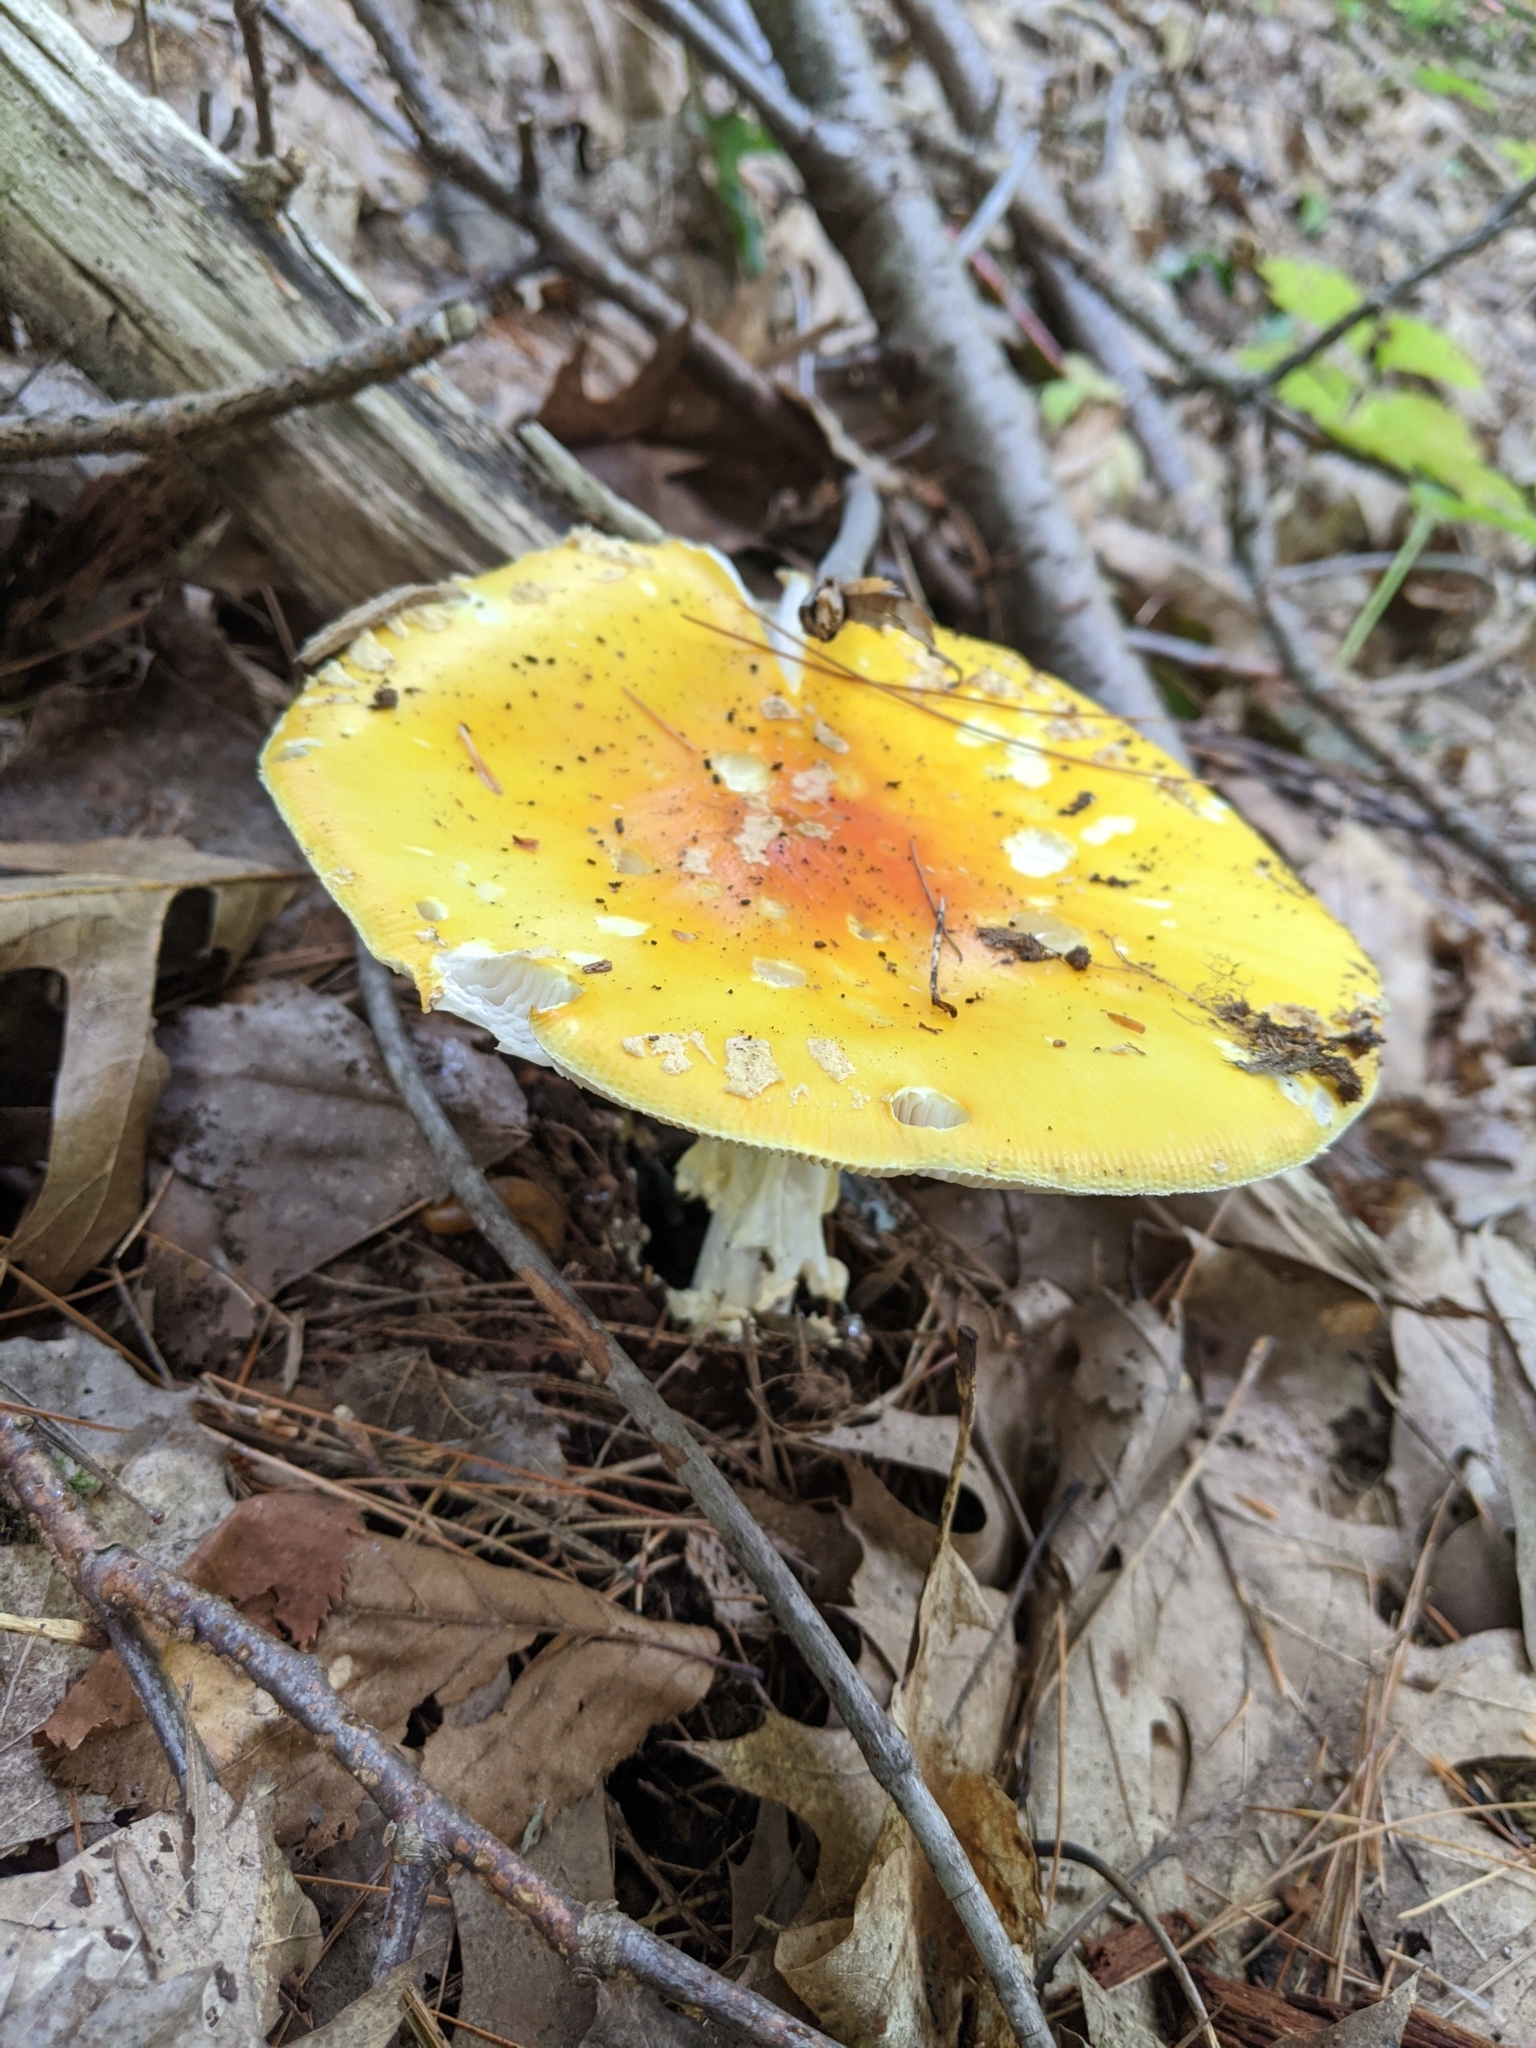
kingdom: Fungi
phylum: Basidiomycota
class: Agaricomycetes
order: Agaricales
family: Amanitaceae
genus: Amanita
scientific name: Amanita muscaria
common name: Fly agaric
